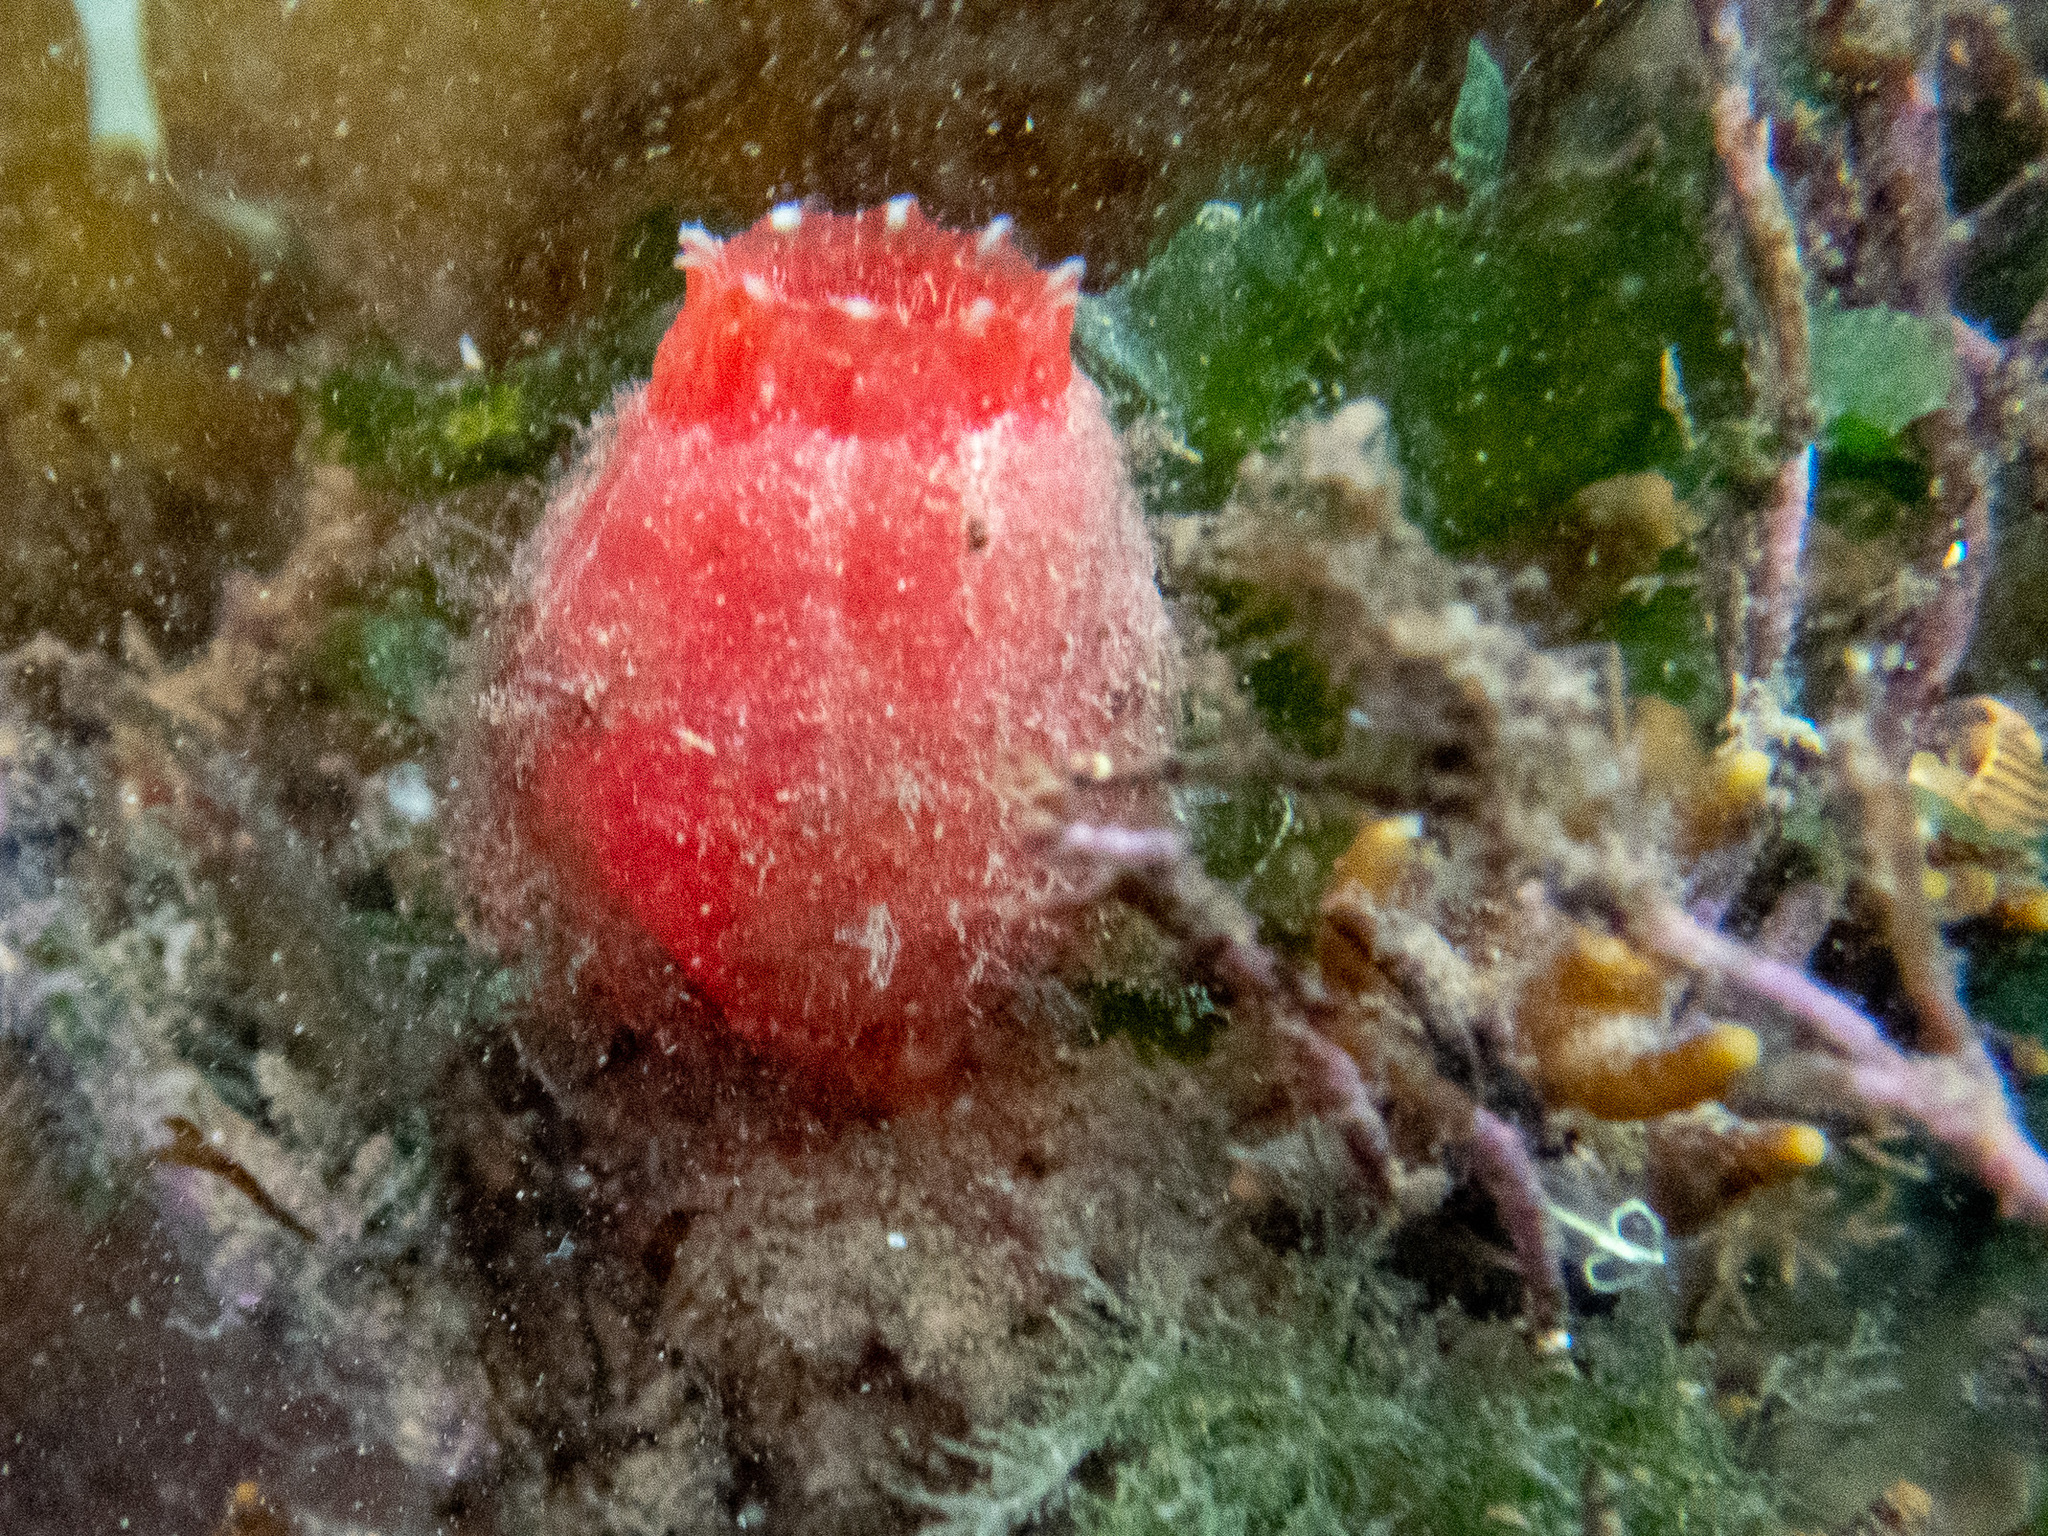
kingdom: Animalia
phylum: Chordata
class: Ascidiacea
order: Phlebobranchia
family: Ascidiidae
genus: Ascidia
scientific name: Ascidia mentula
